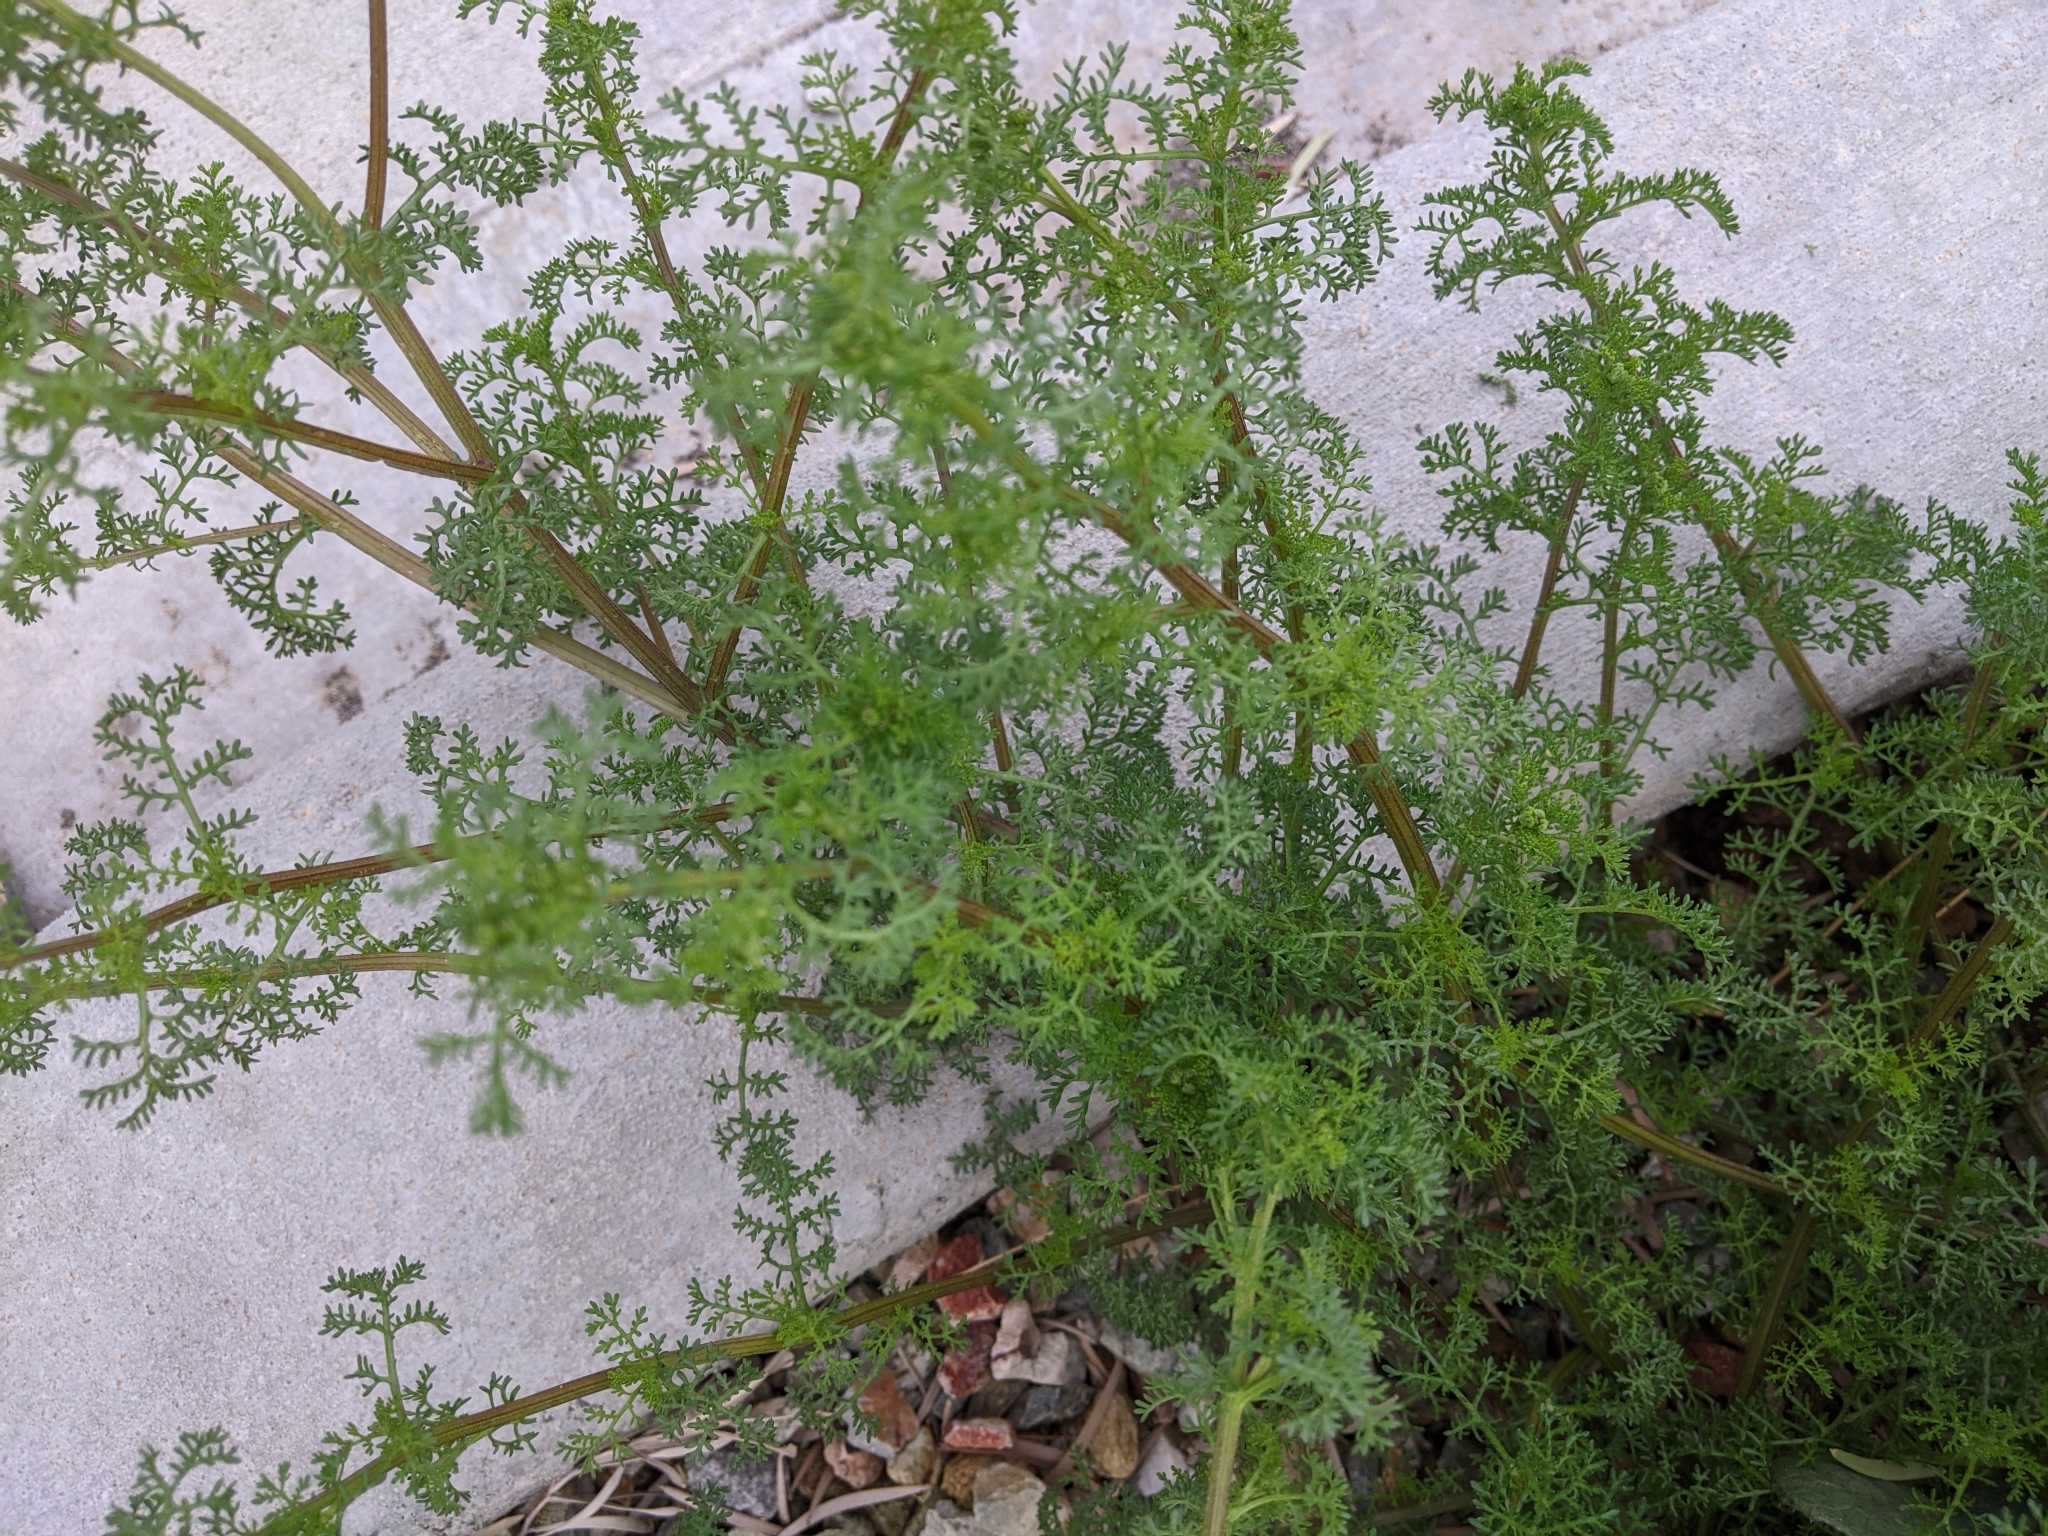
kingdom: Plantae
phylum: Tracheophyta
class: Magnoliopsida
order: Asterales
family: Asteraceae
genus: Oncosiphon
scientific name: Oncosiphon pilulifer
